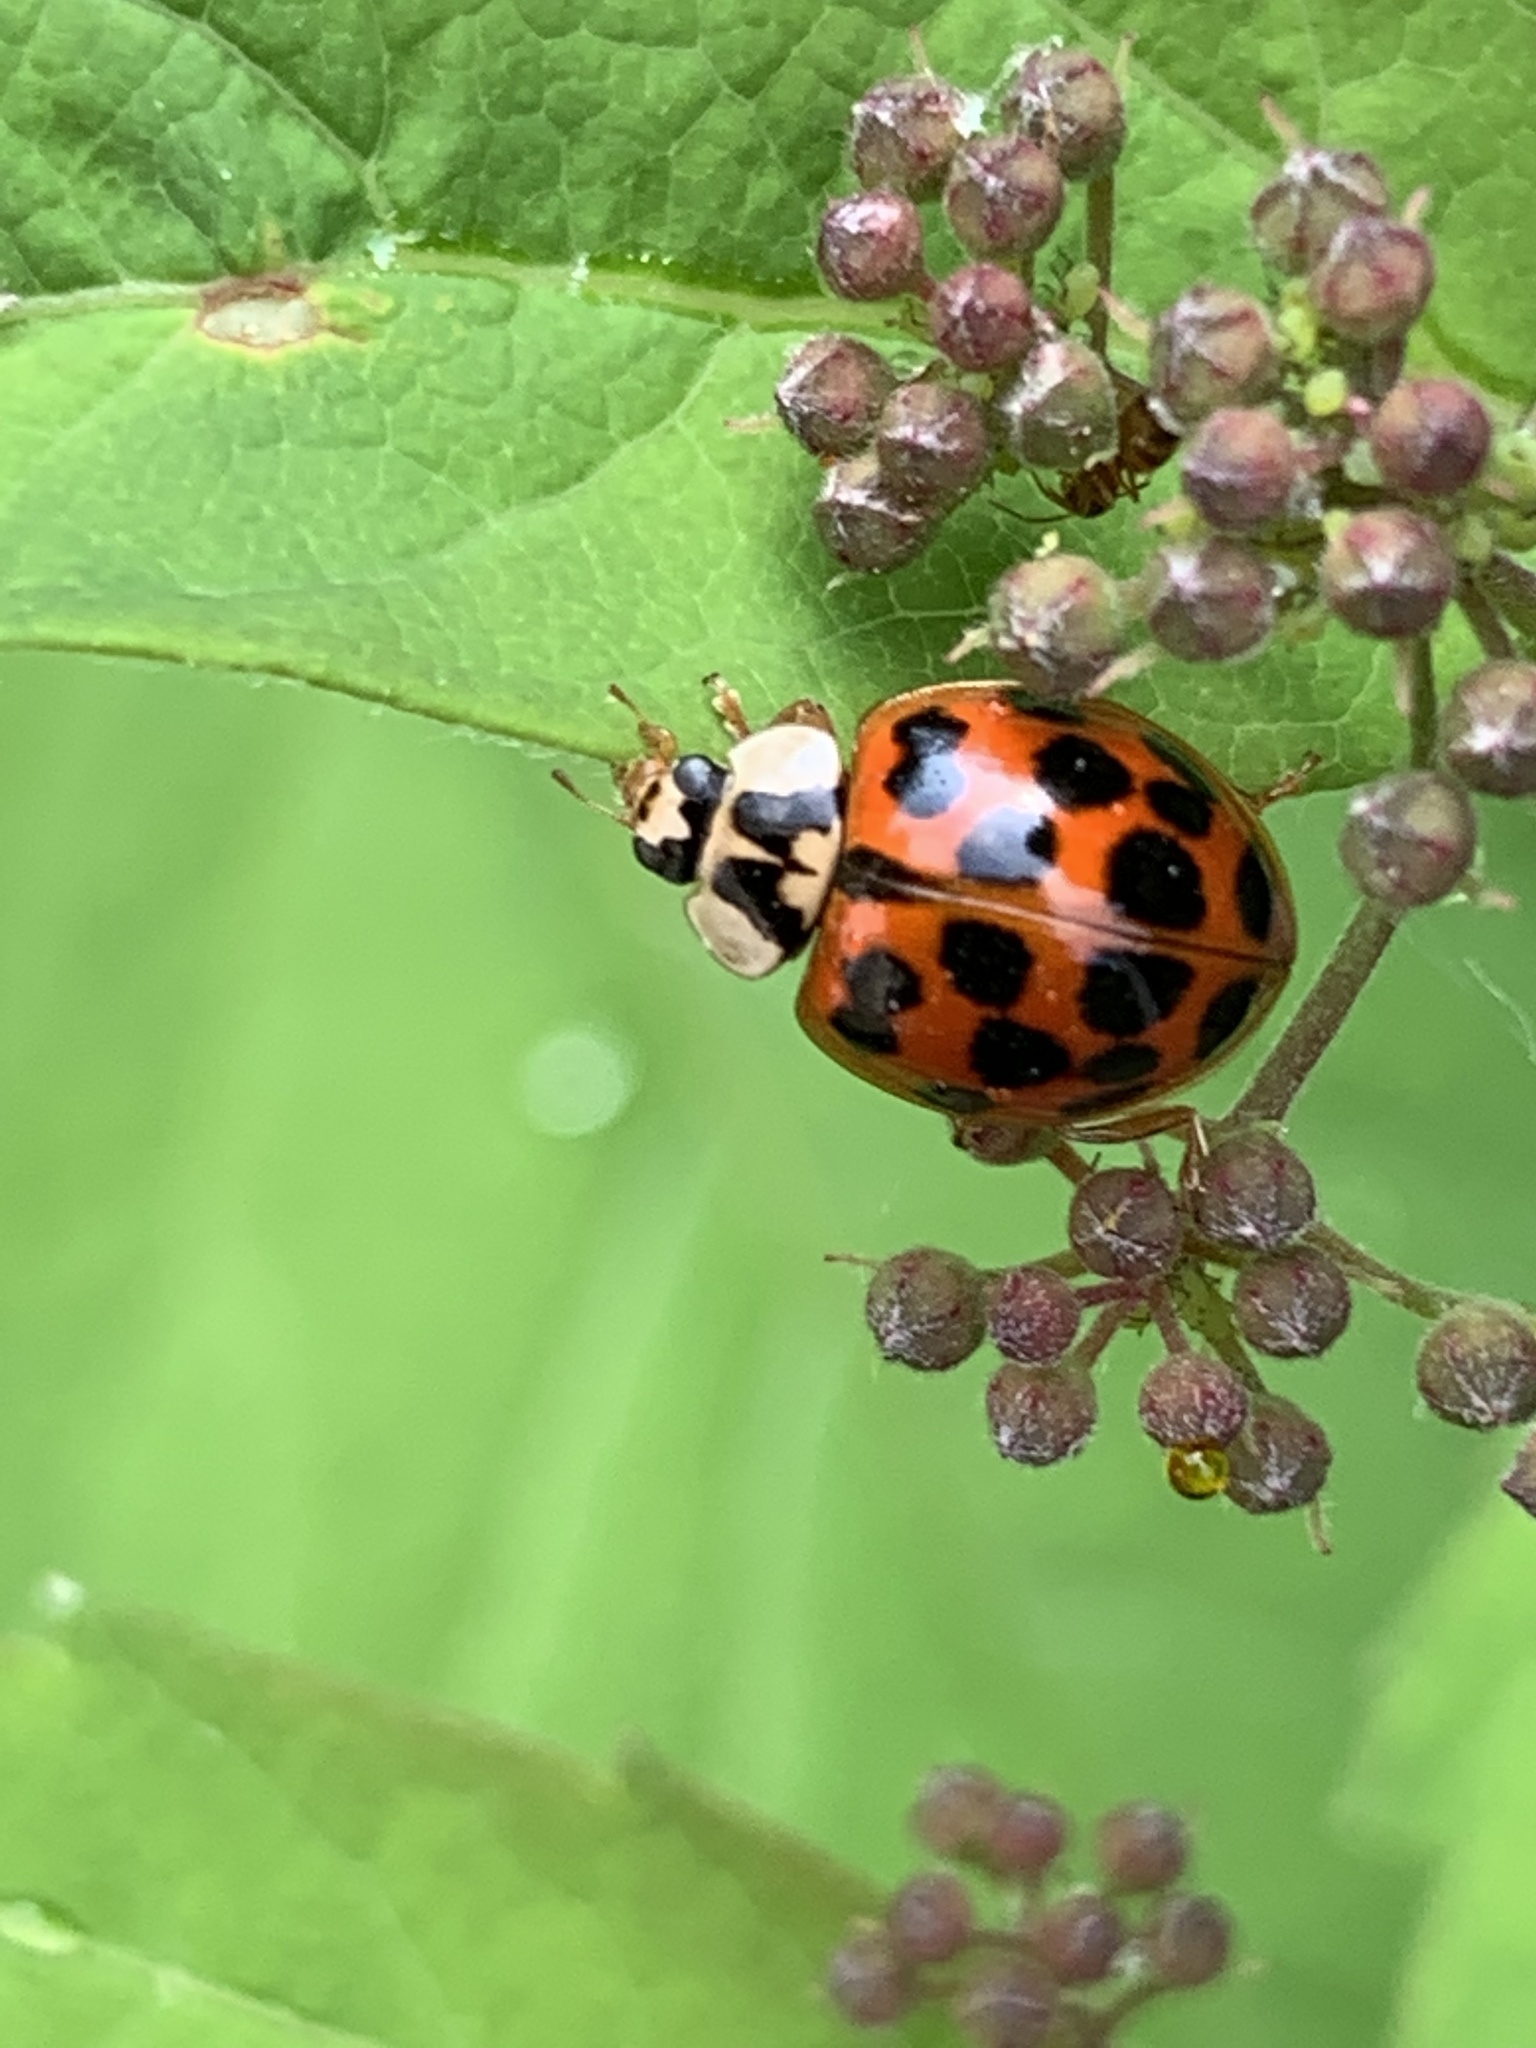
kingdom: Animalia
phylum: Arthropoda
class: Insecta
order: Coleoptera
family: Coccinellidae
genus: Harmonia
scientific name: Harmonia axyridis
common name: Harlequin ladybird
